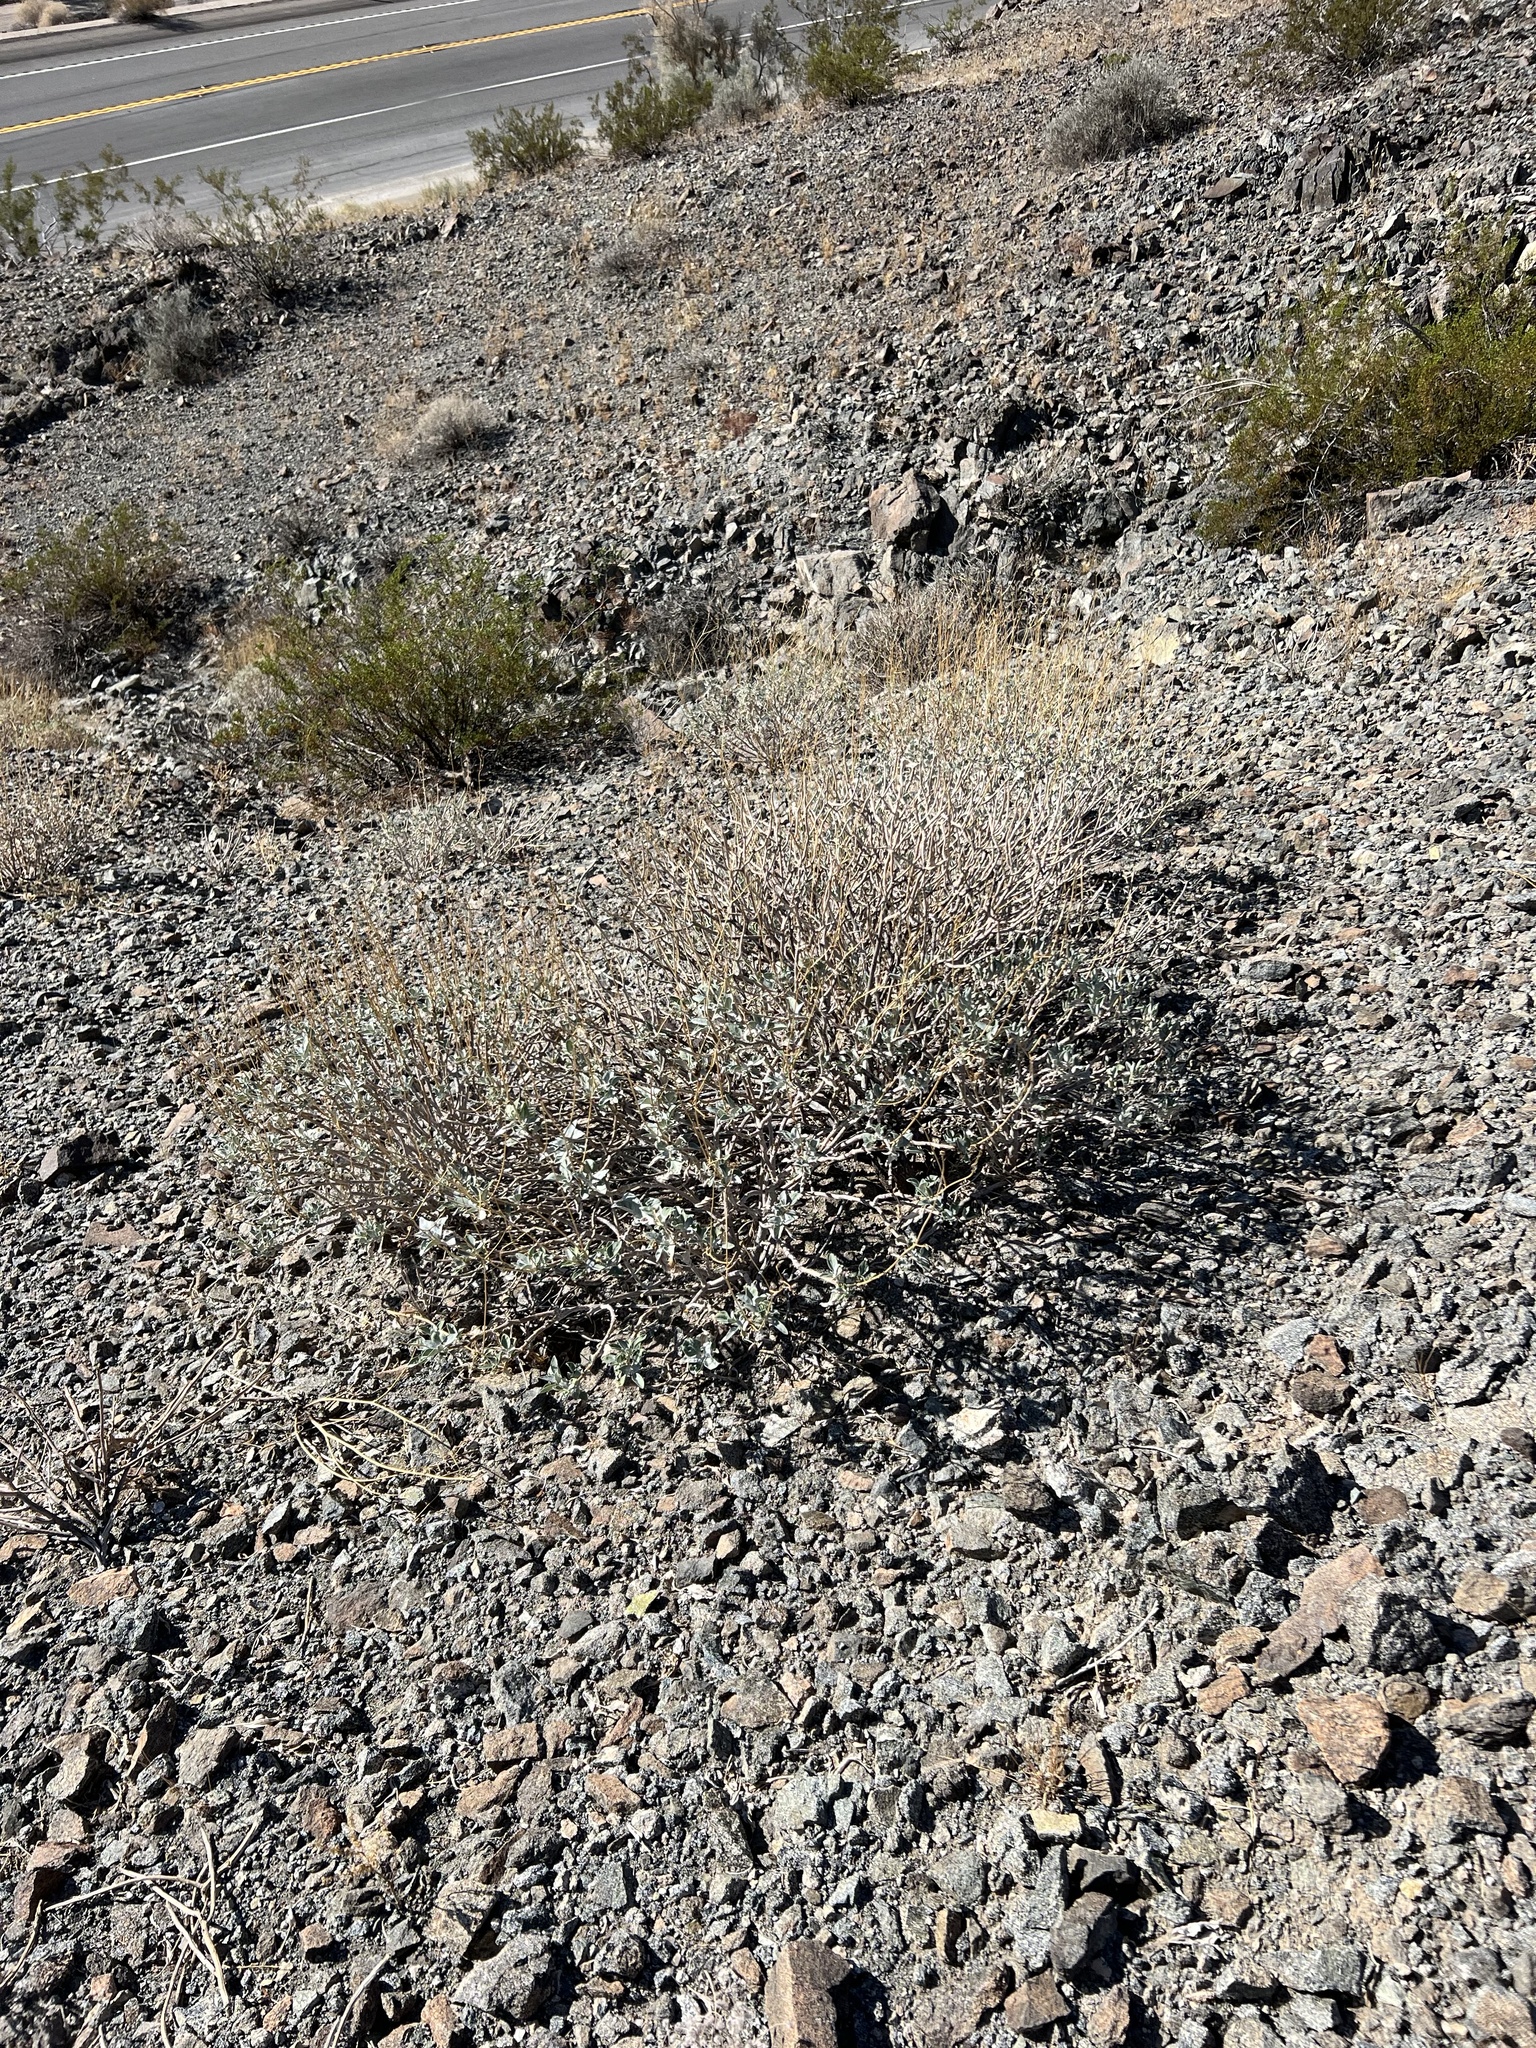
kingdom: Plantae
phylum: Tracheophyta
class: Magnoliopsida
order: Asterales
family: Asteraceae
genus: Encelia
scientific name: Encelia farinosa
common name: Brittlebush
